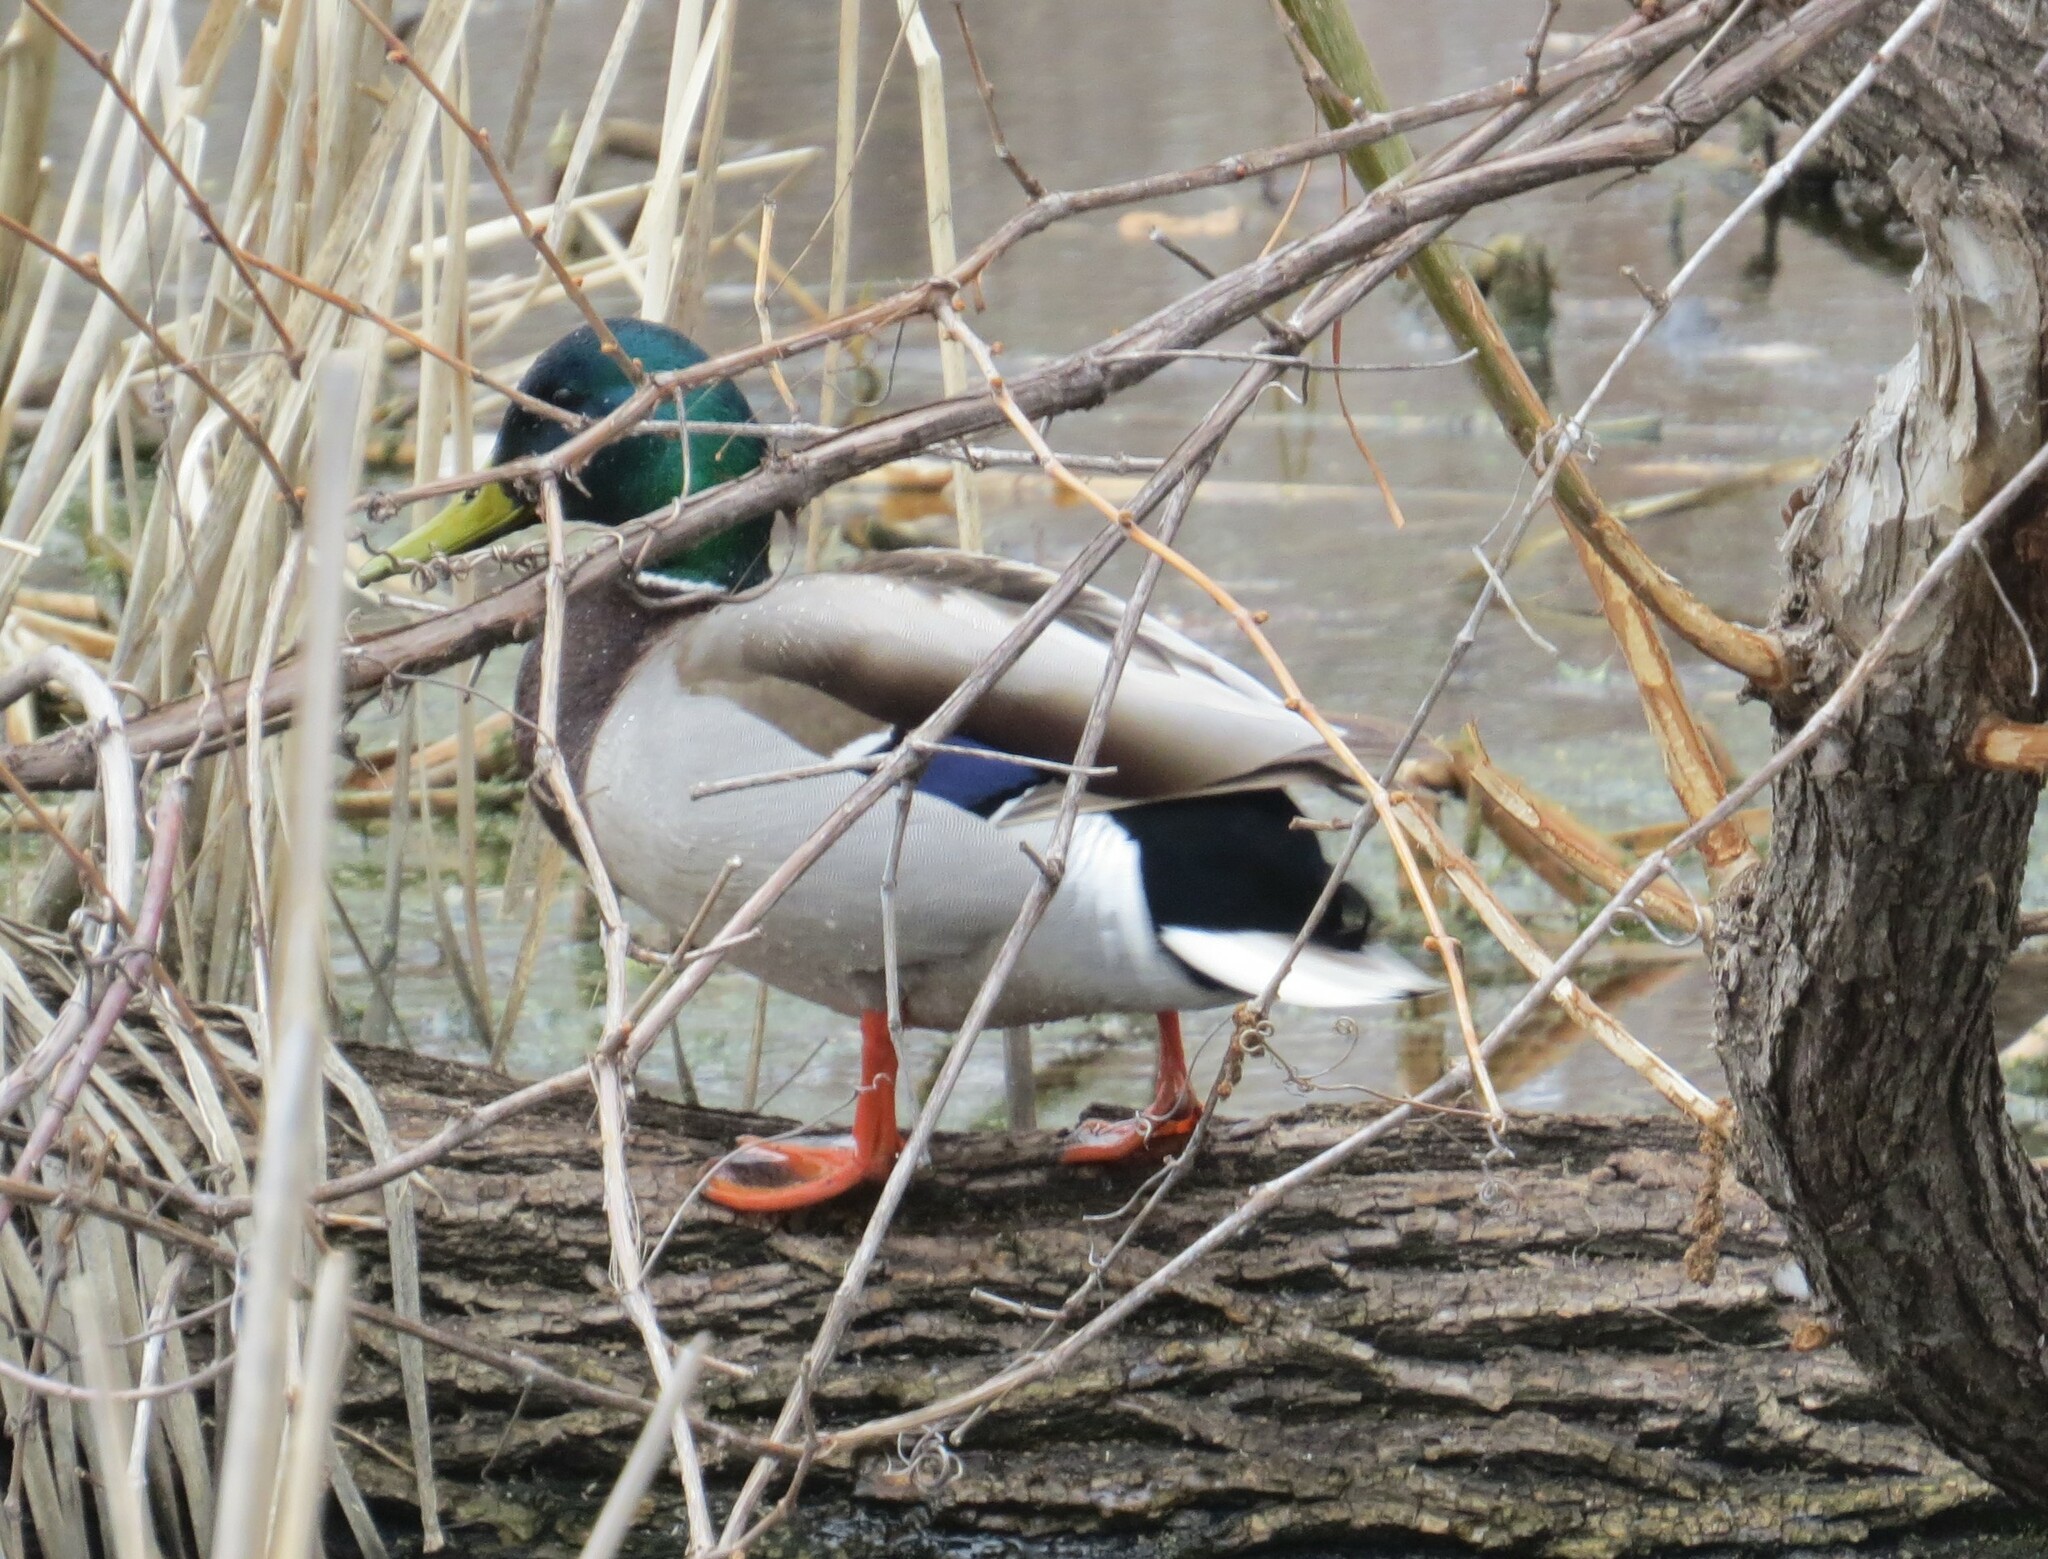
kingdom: Animalia
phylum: Chordata
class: Aves
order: Anseriformes
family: Anatidae
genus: Anas
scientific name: Anas platyrhynchos
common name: Mallard
